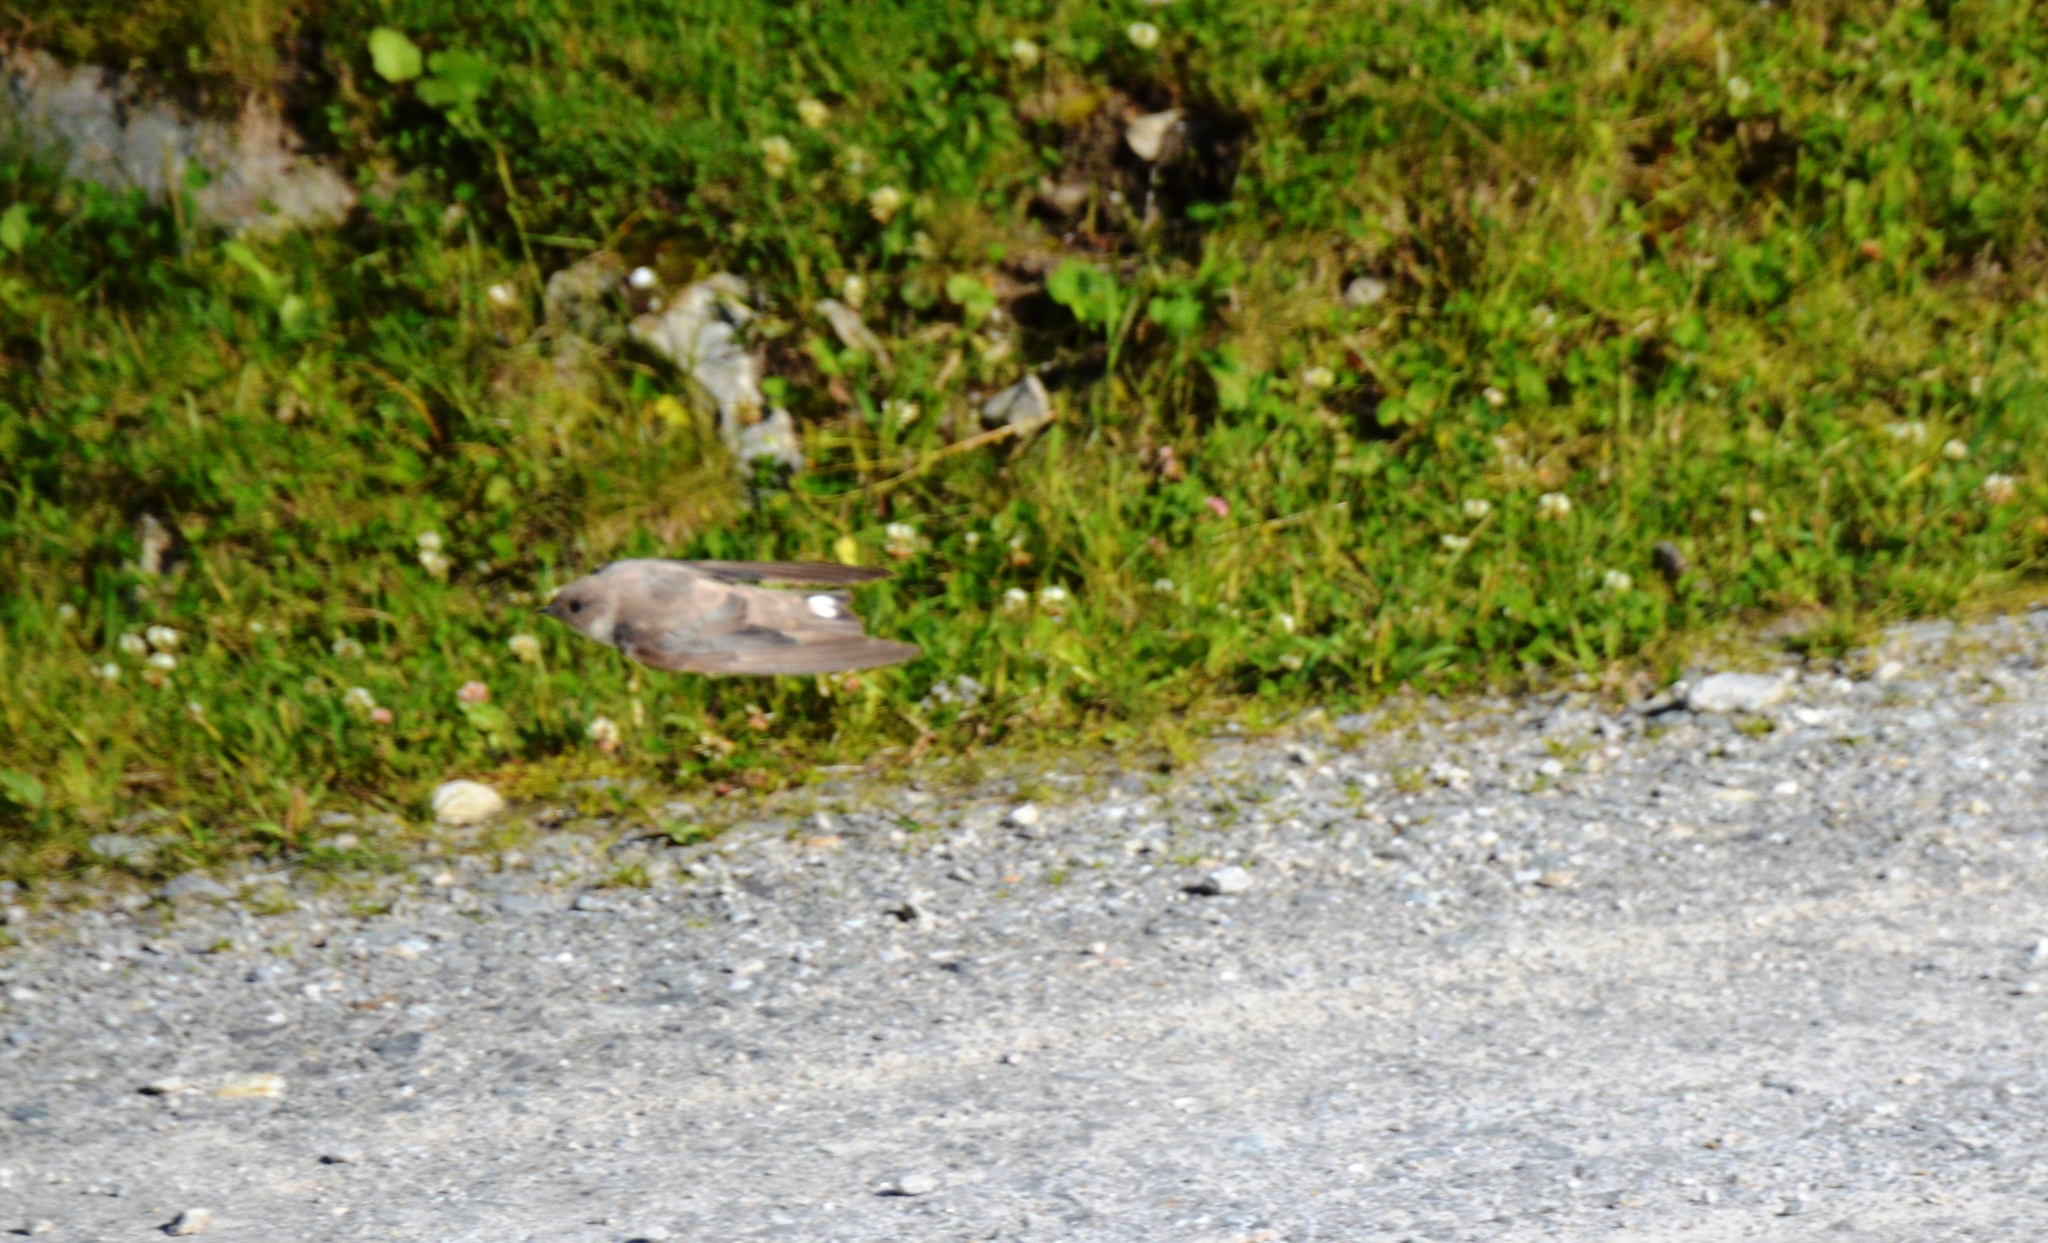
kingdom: Animalia
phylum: Chordata
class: Aves
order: Passeriformes
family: Hirundinidae
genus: Ptyonoprogne
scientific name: Ptyonoprogne rupestris
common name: Eurasian crag martin
